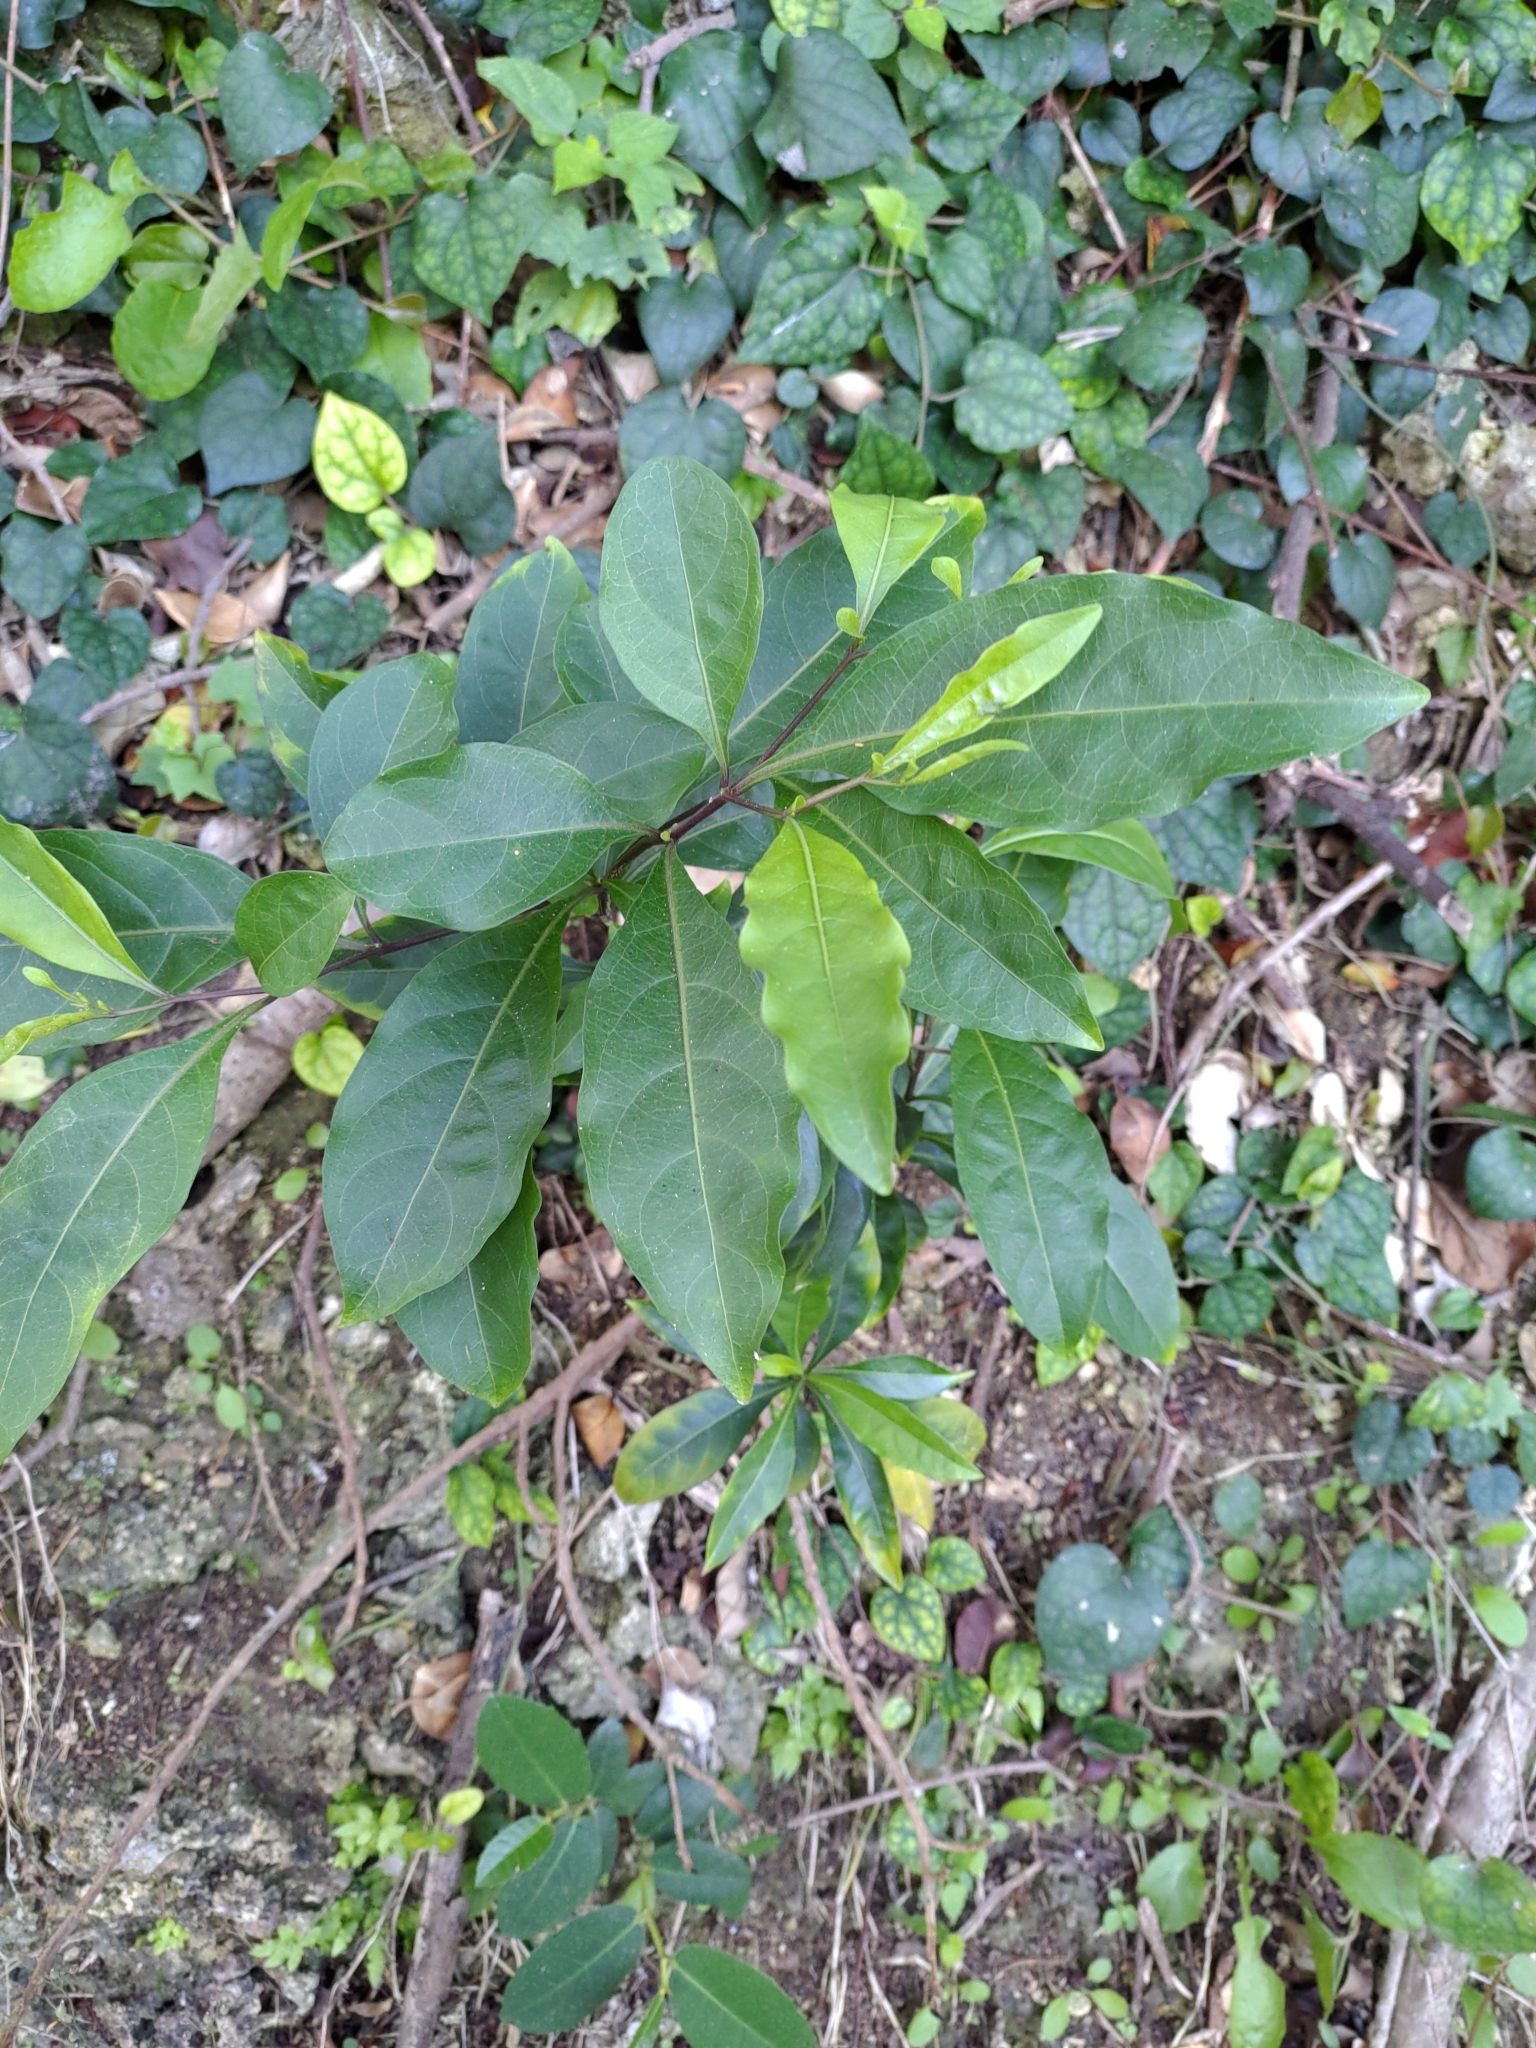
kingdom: Plantae
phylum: Tracheophyta
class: Magnoliopsida
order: Solanales
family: Solanaceae
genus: Solanum
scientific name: Solanum diphyllum
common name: Twoleaf nightshade
